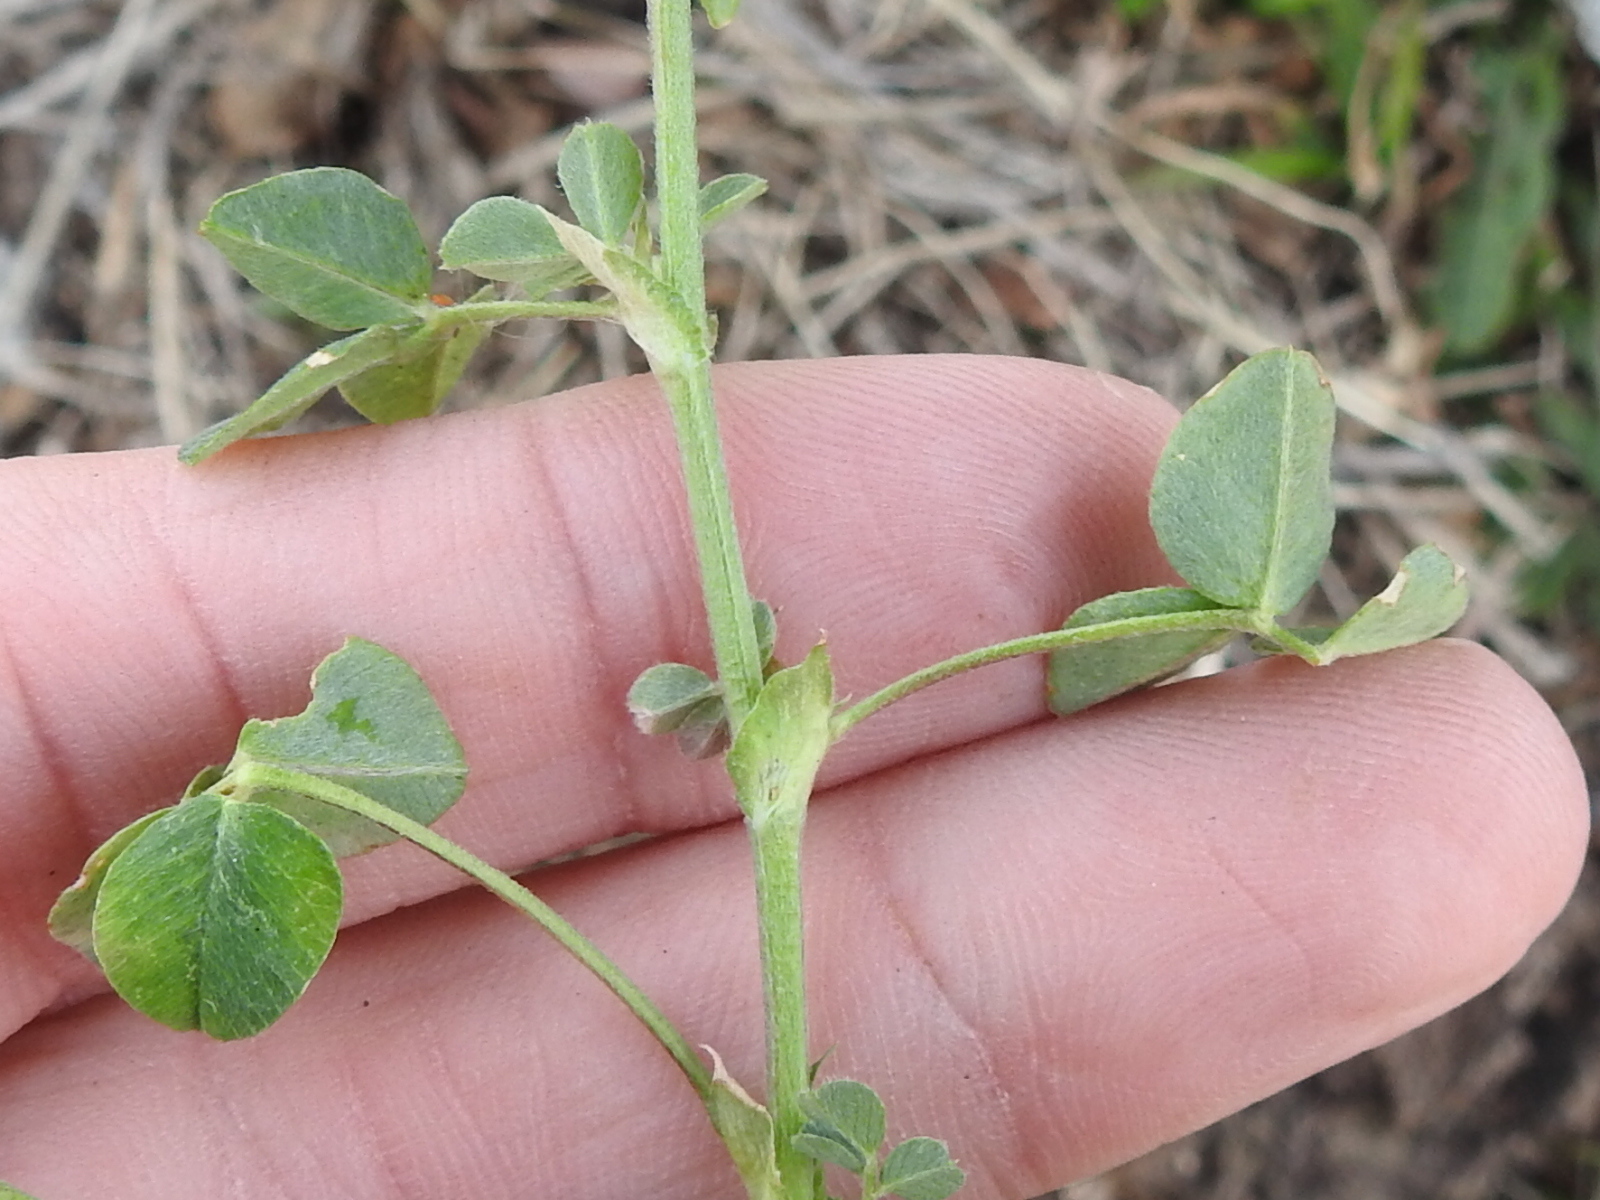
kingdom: Plantae
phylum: Tracheophyta
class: Magnoliopsida
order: Fabales
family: Fabaceae
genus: Medicago
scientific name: Medicago lupulina
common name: Black medick
